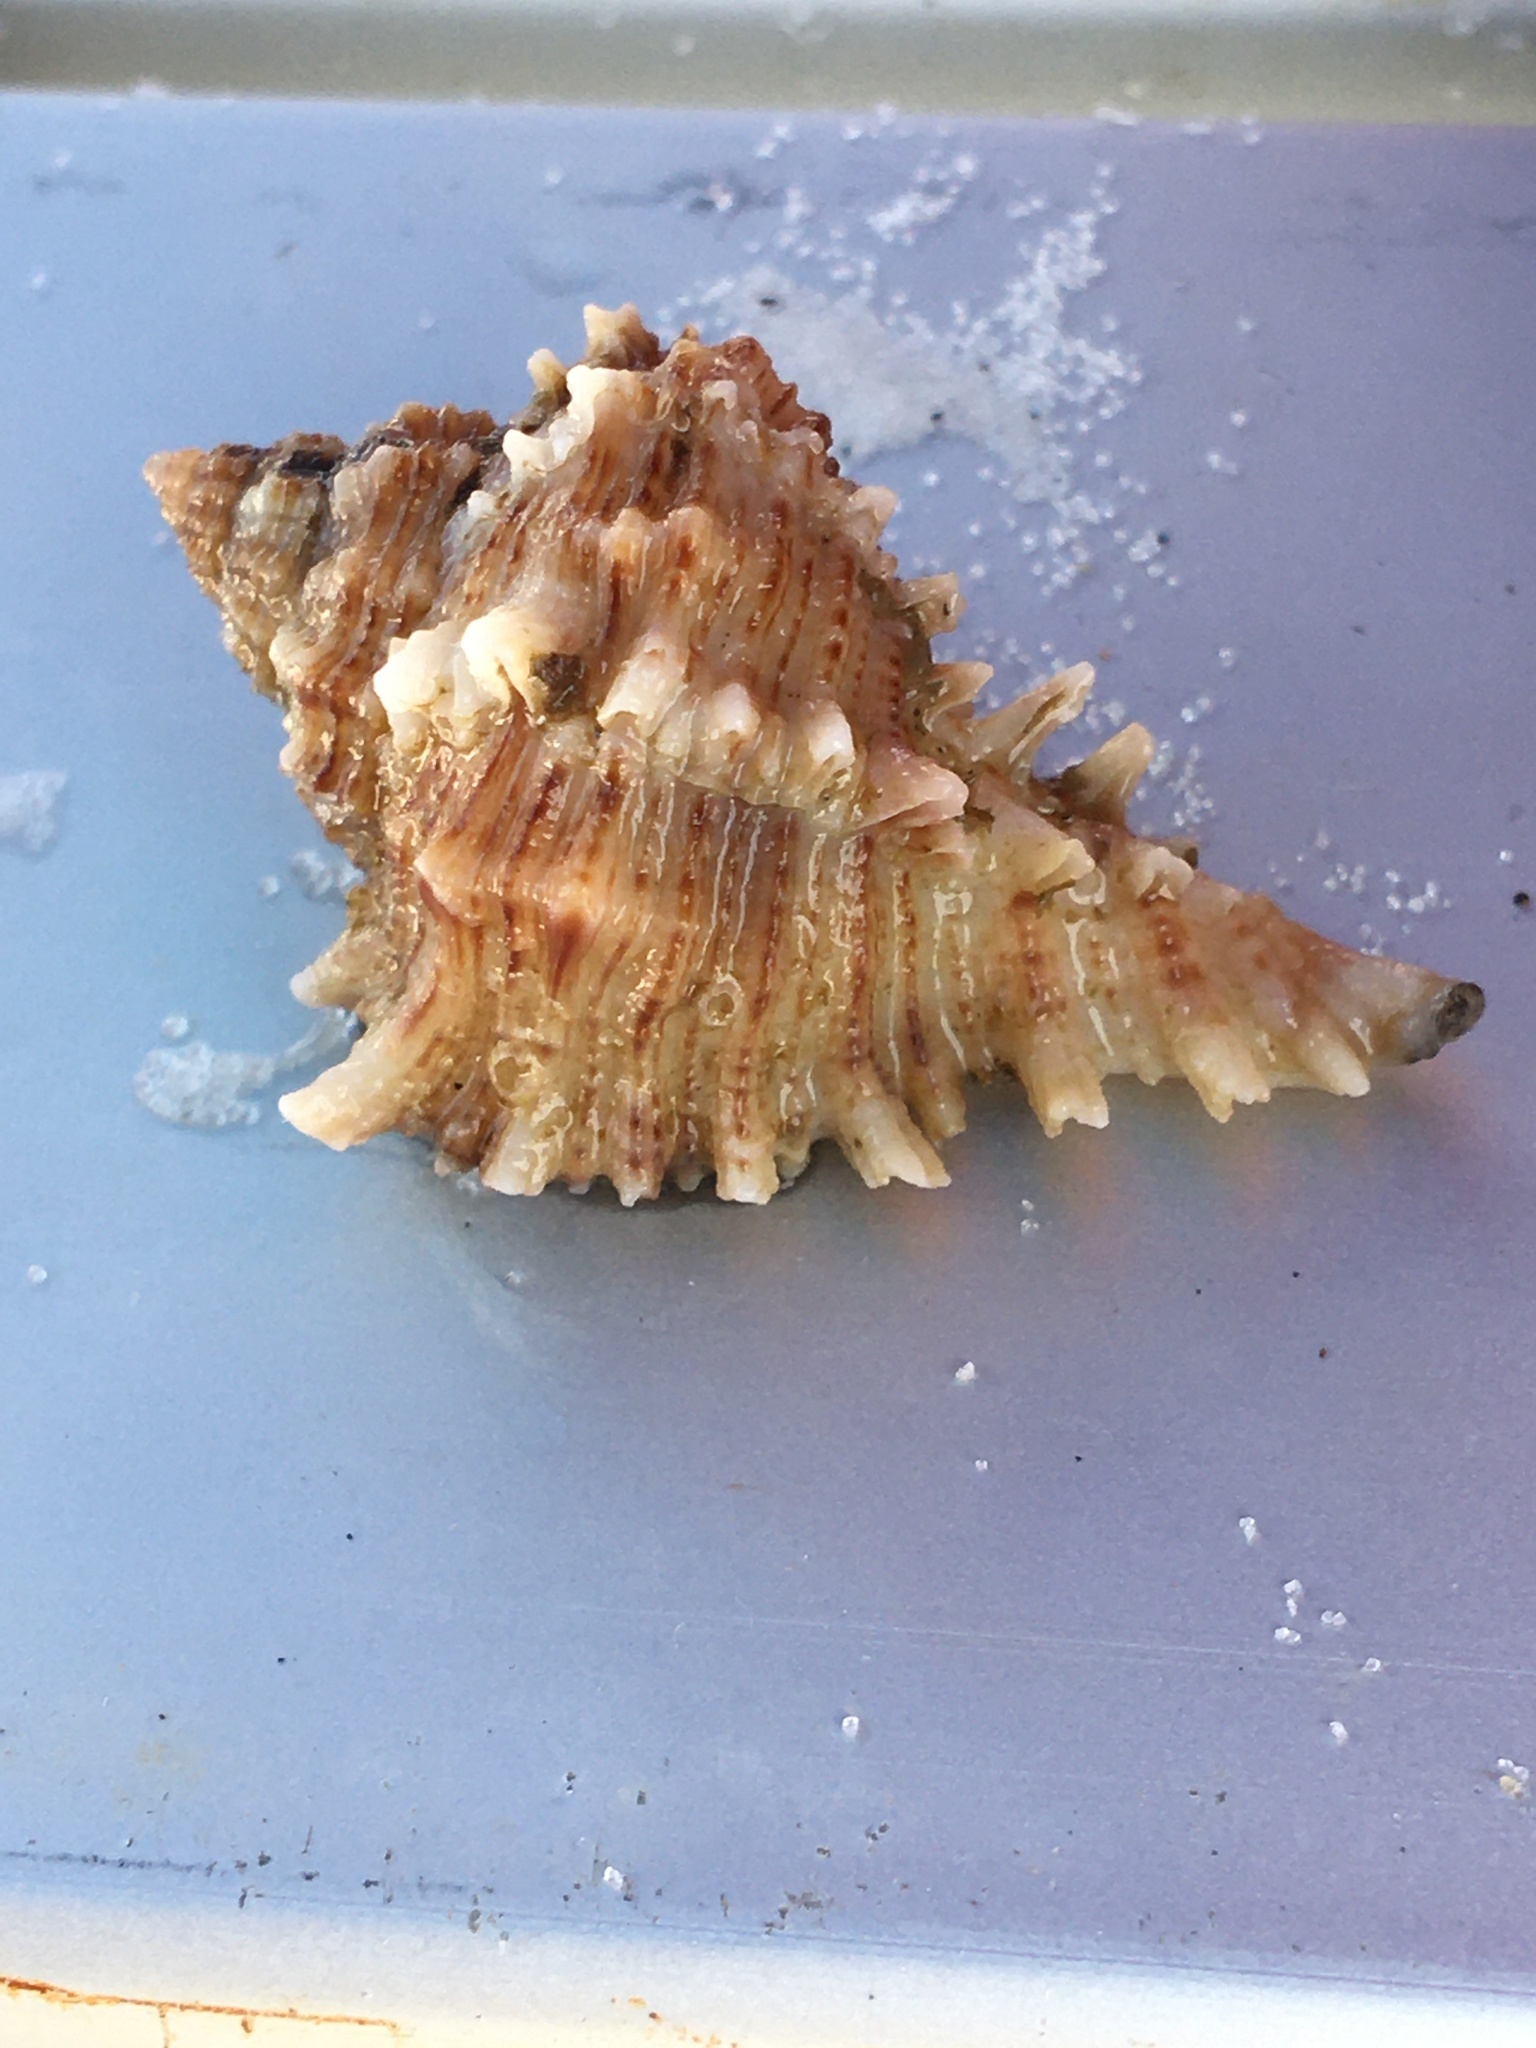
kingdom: Animalia
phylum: Mollusca
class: Gastropoda
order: Neogastropoda
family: Muricidae
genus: Hexaplex
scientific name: Hexaplex fulvescens
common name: Tawny murex
